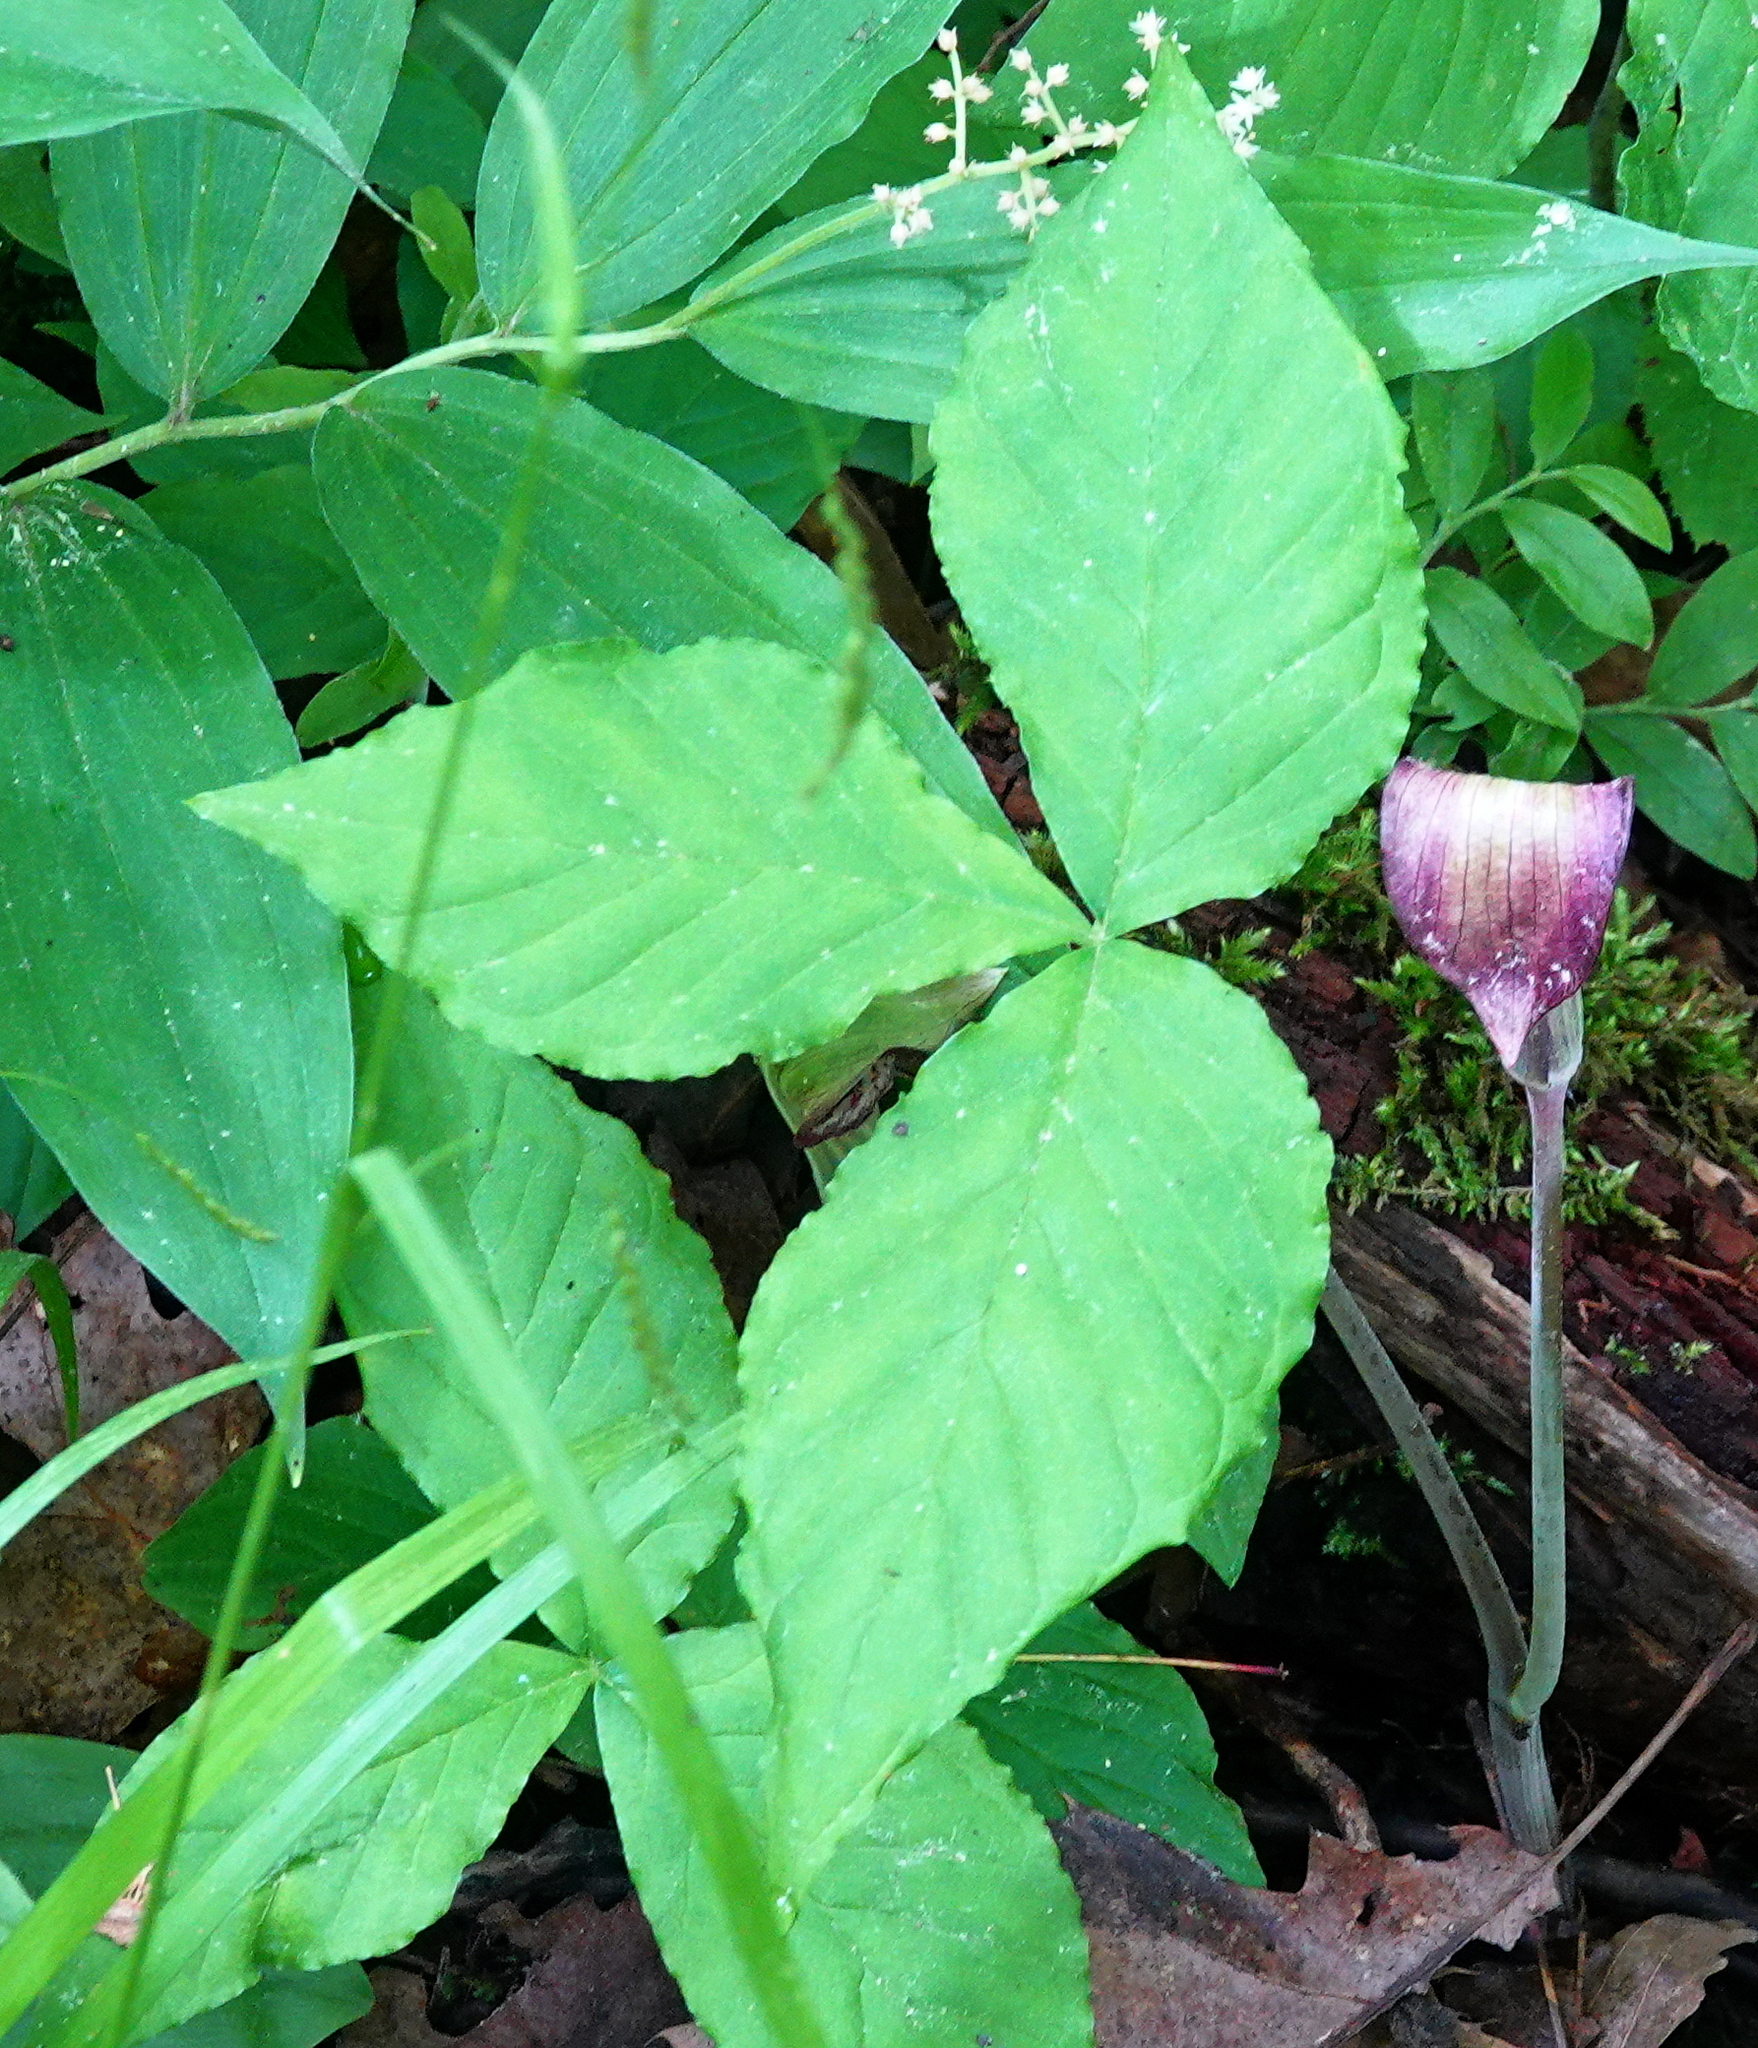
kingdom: Plantae
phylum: Tracheophyta
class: Liliopsida
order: Alismatales
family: Araceae
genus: Arisaema
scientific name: Arisaema triphyllum
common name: Jack-in-the-pulpit
